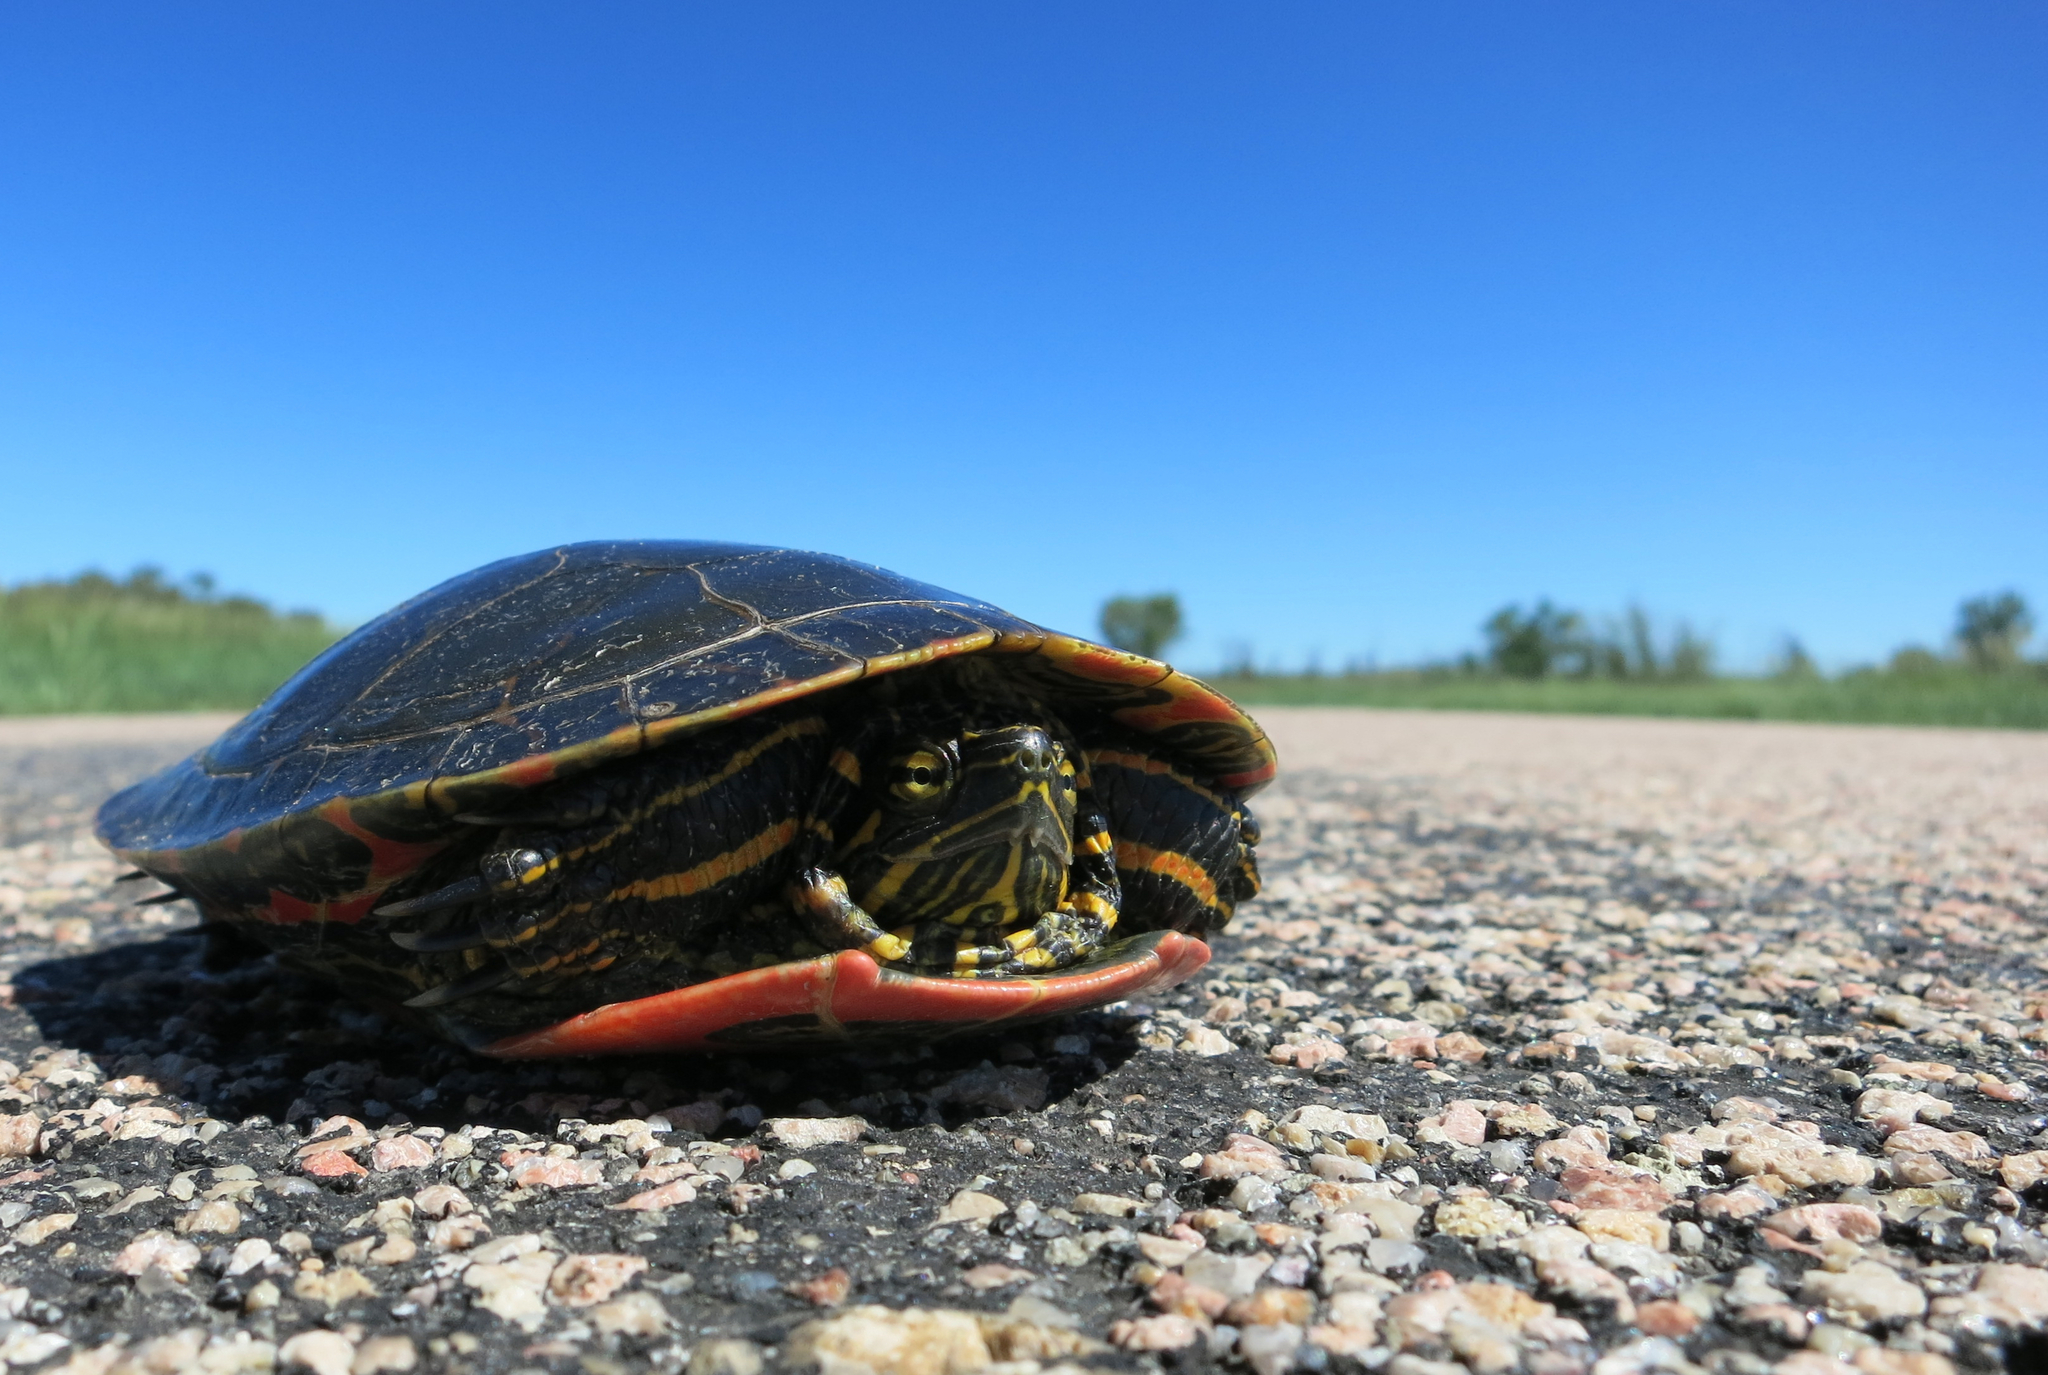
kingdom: Animalia
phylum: Chordata
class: Testudines
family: Emydidae
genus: Chrysemys
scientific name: Chrysemys picta
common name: Painted turtle
